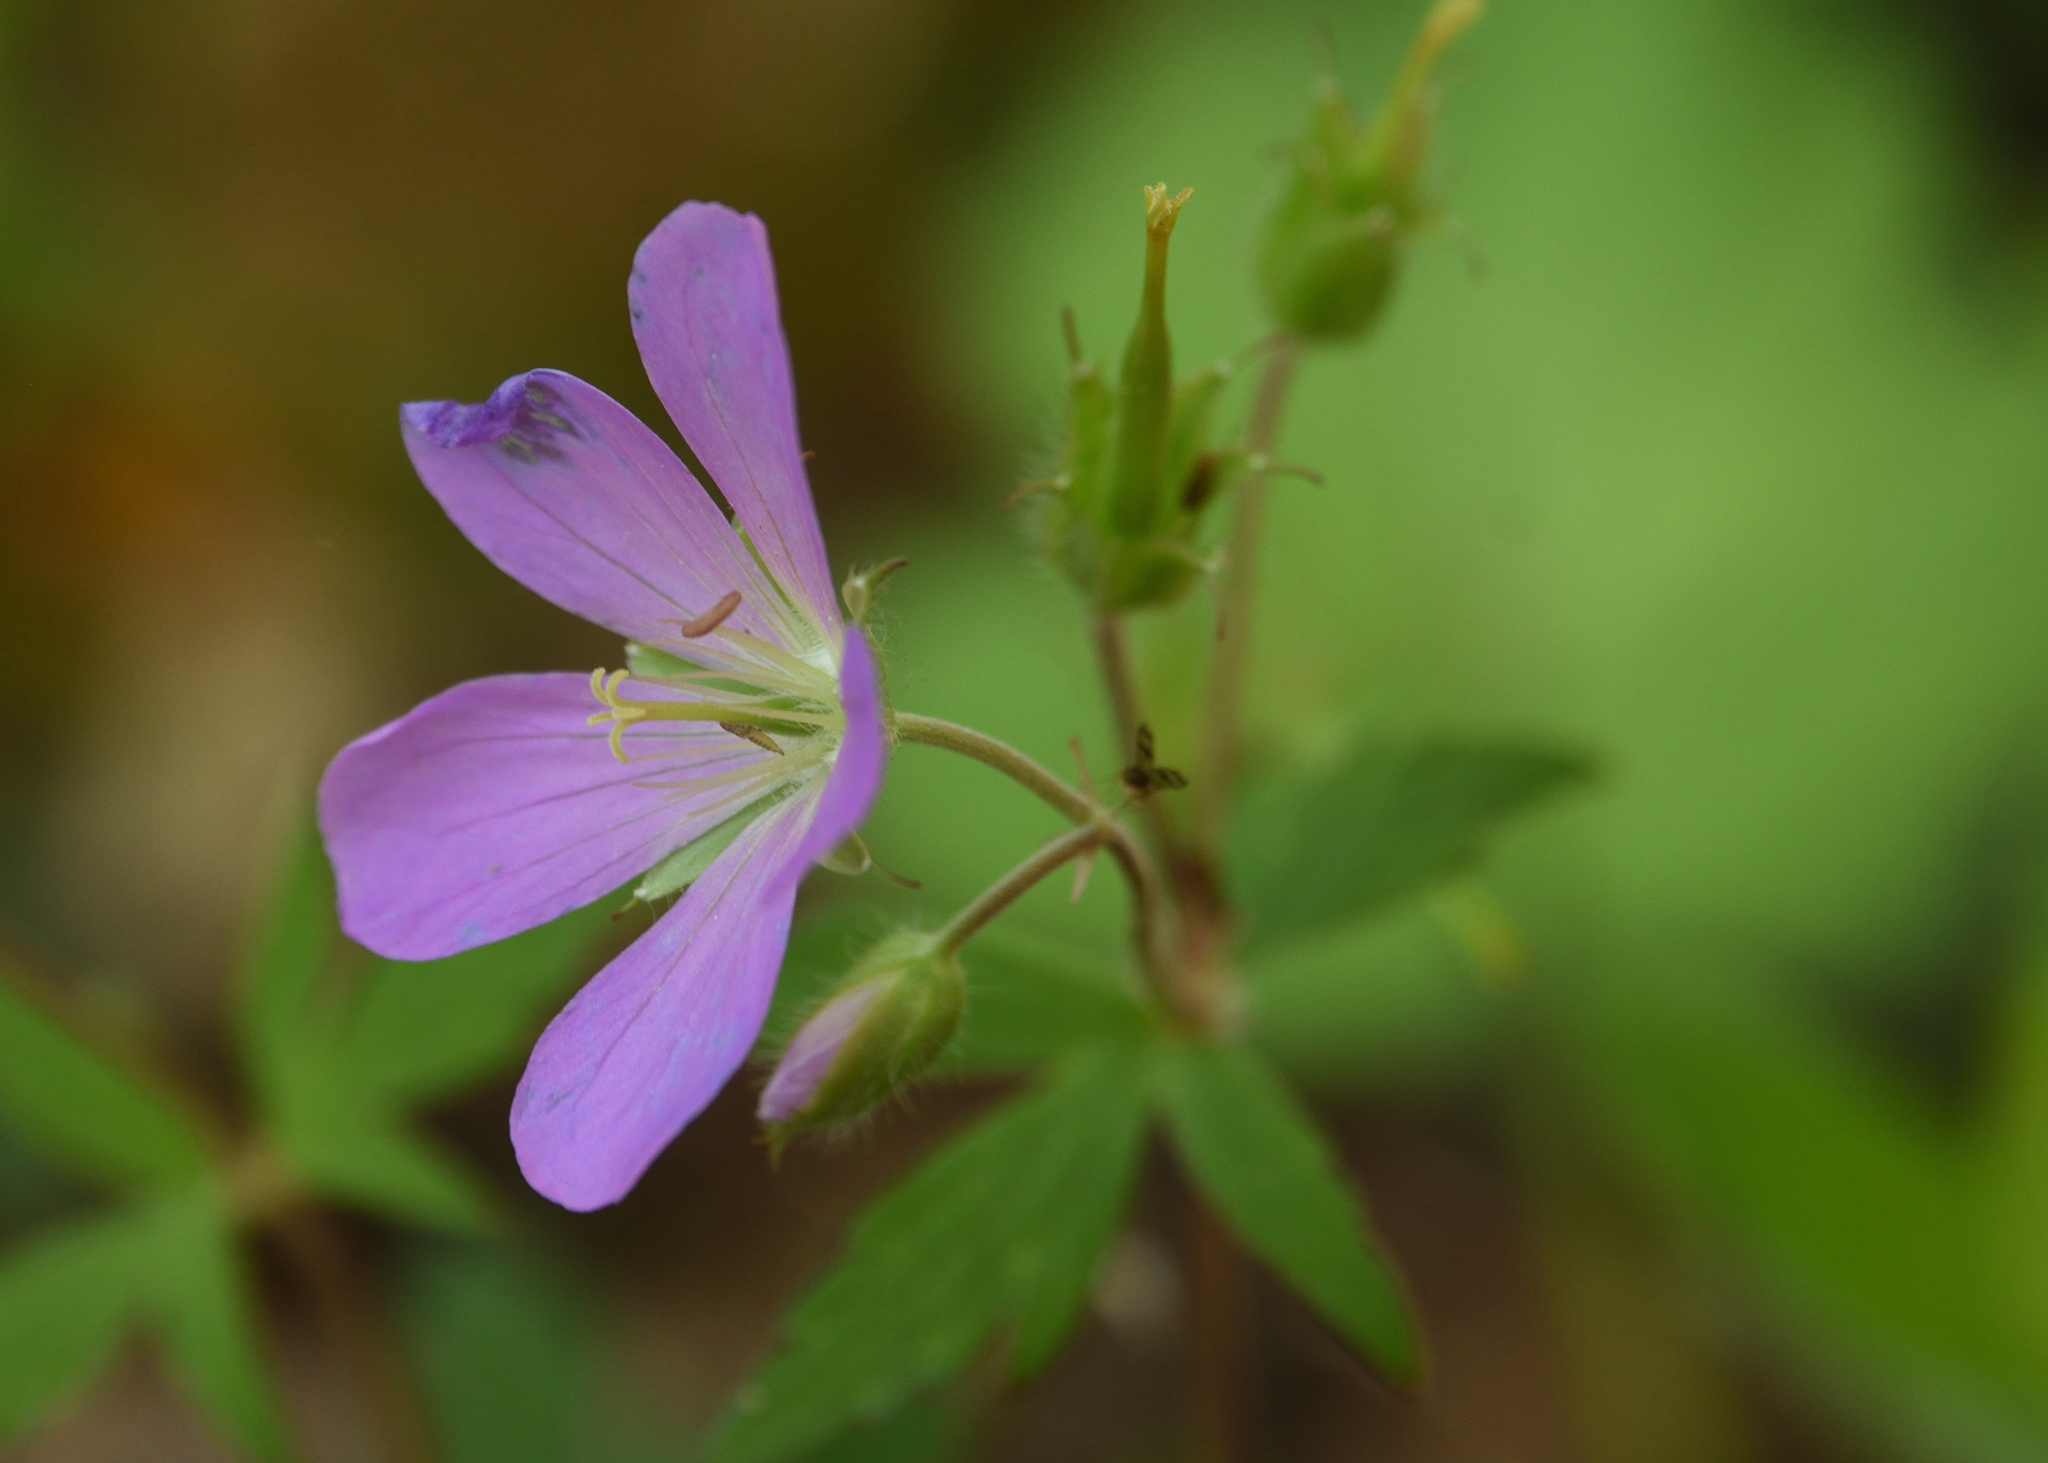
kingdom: Plantae
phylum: Tracheophyta
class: Magnoliopsida
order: Geraniales
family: Geraniaceae
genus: Geranium
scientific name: Geranium maculatum
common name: Spotted geranium
